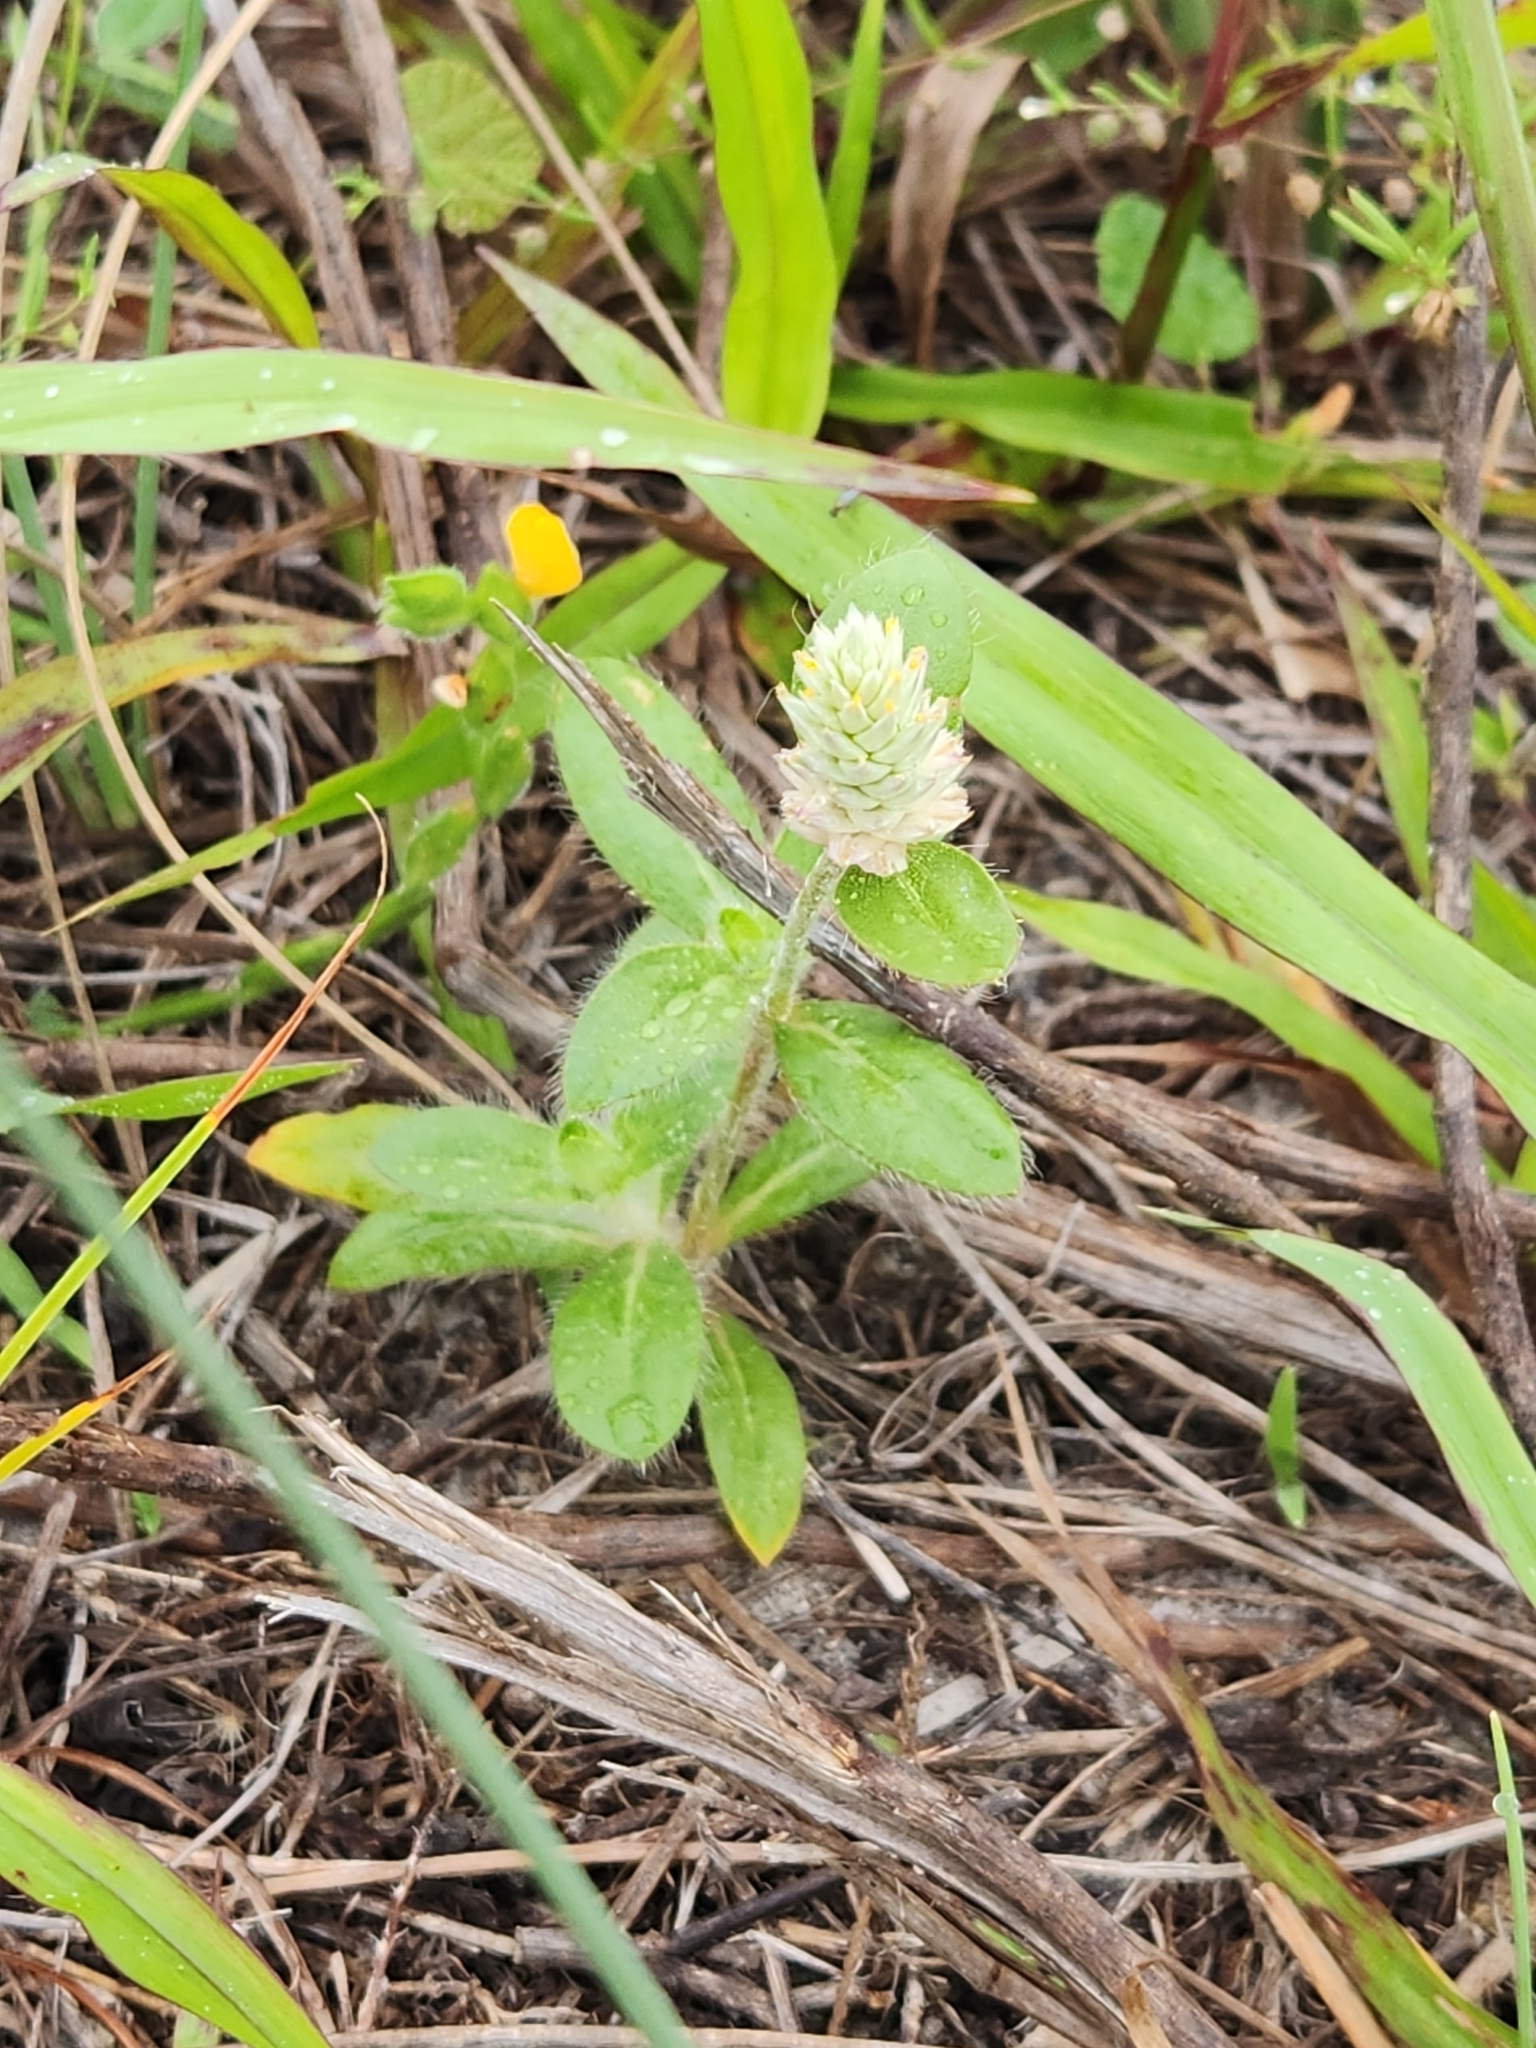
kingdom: Plantae
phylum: Tracheophyta
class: Magnoliopsida
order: Caryophyllales
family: Amaranthaceae
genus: Gomphrena
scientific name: Gomphrena serrata
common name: Arrasa con todo
